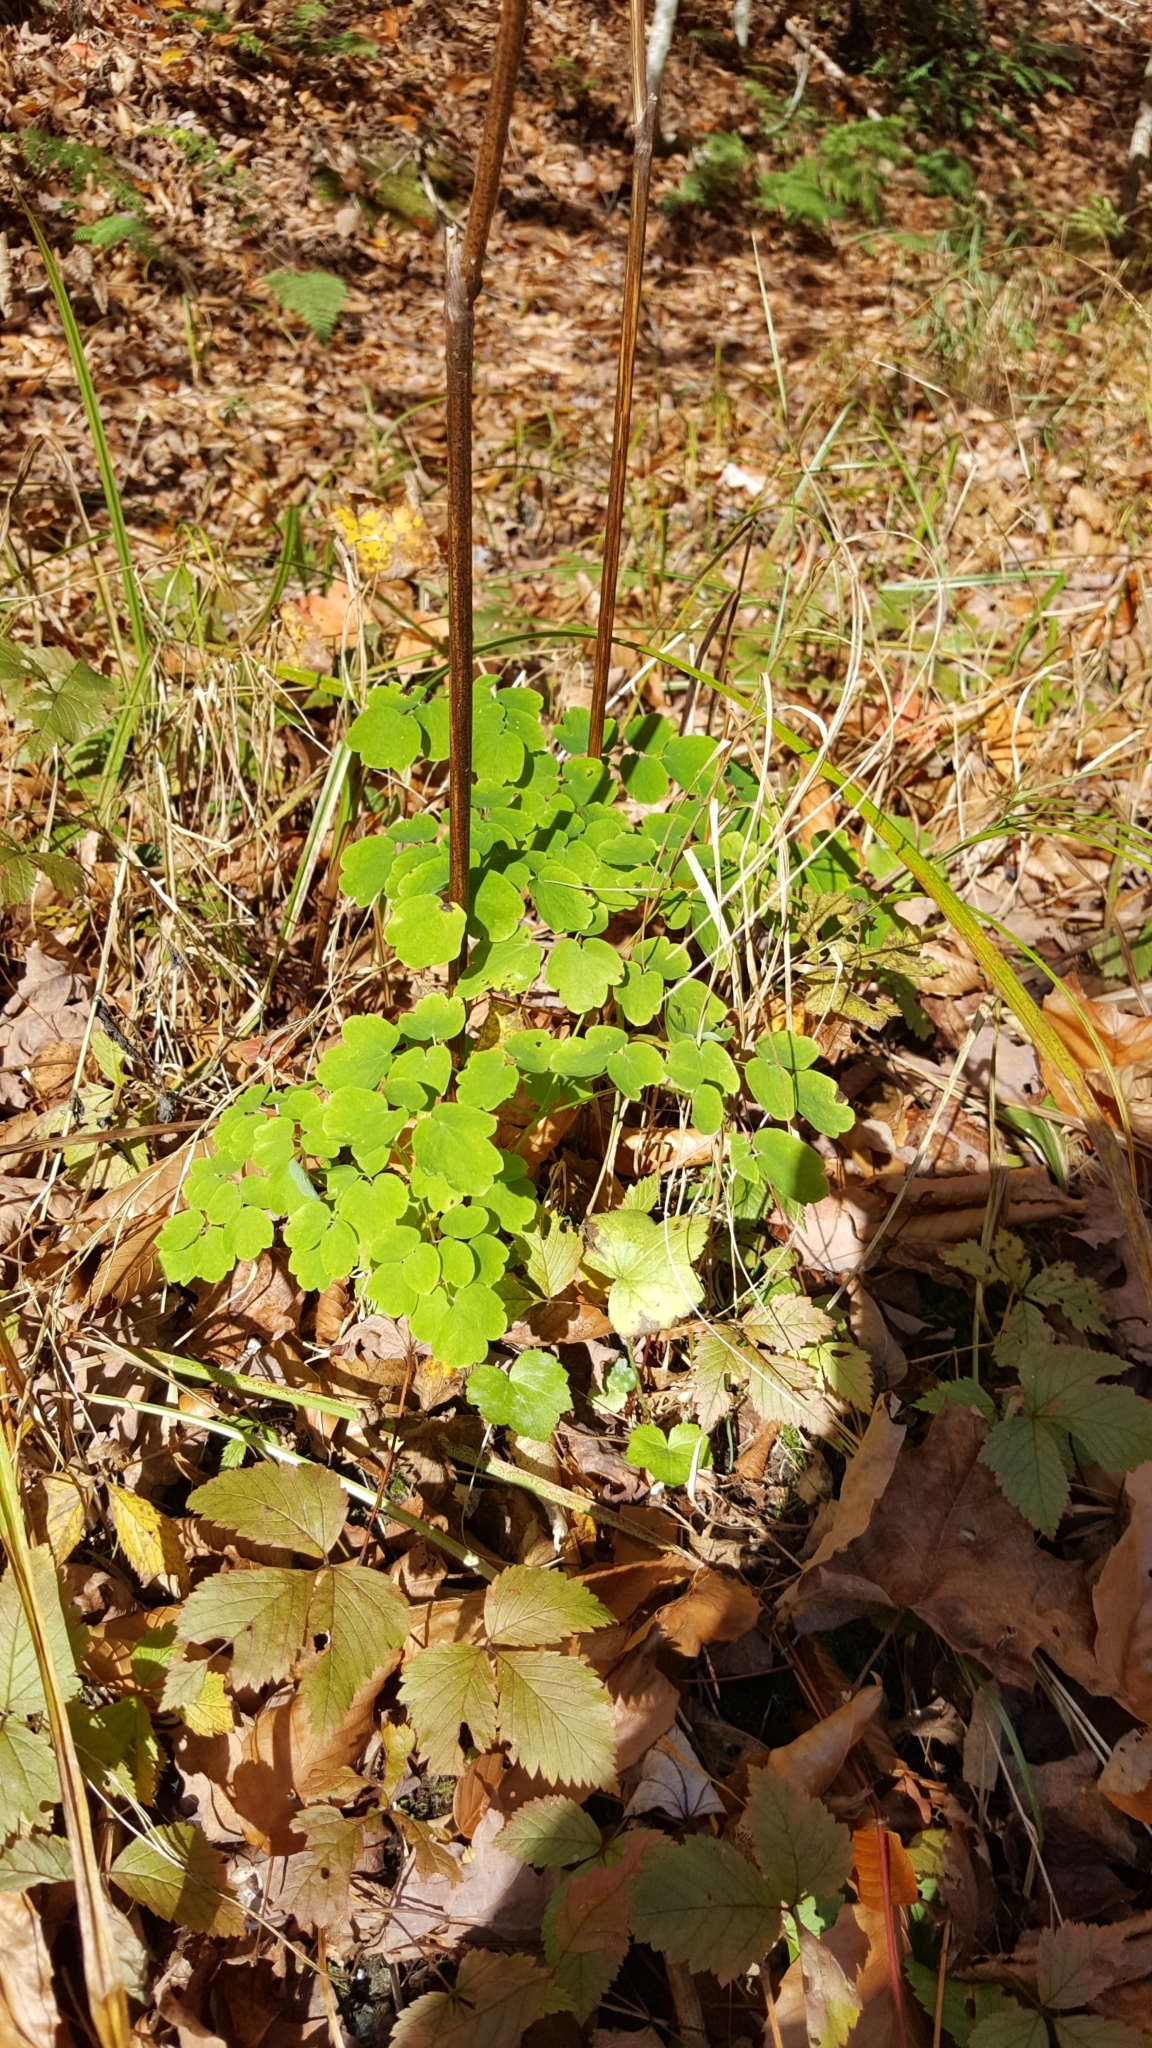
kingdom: Plantae
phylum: Tracheophyta
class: Magnoliopsida
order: Ranunculales
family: Ranunculaceae
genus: Thalictrum
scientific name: Thalictrum pubescens
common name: King-of-the-meadow
